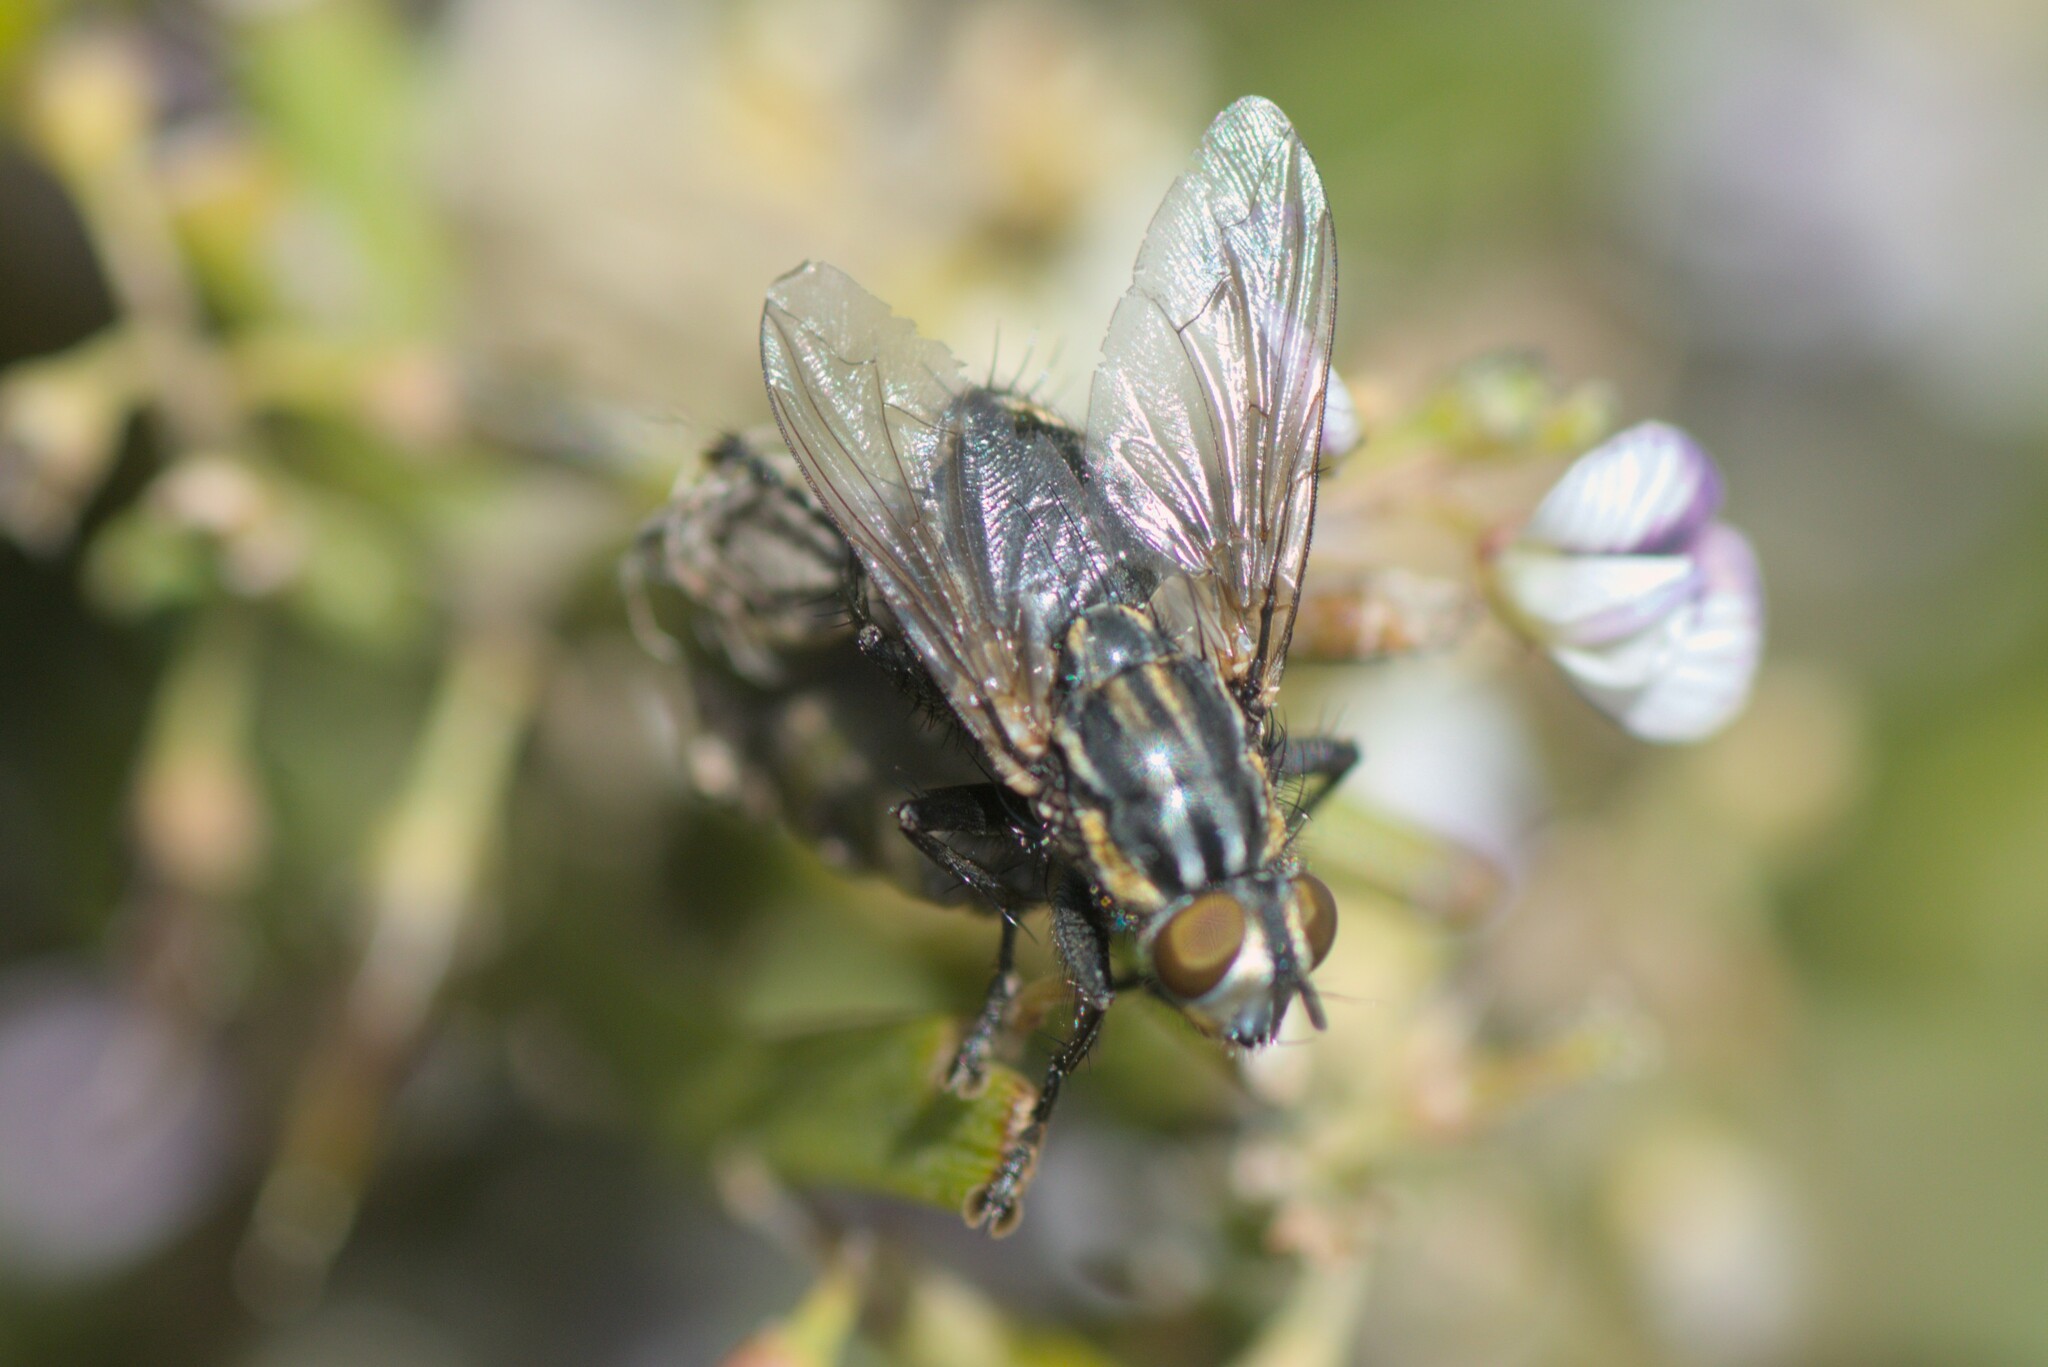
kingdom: Animalia
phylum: Arthropoda
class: Insecta
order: Diptera
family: Sarcophagidae
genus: Oxysarcodexia
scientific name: Oxysarcodexia varia
